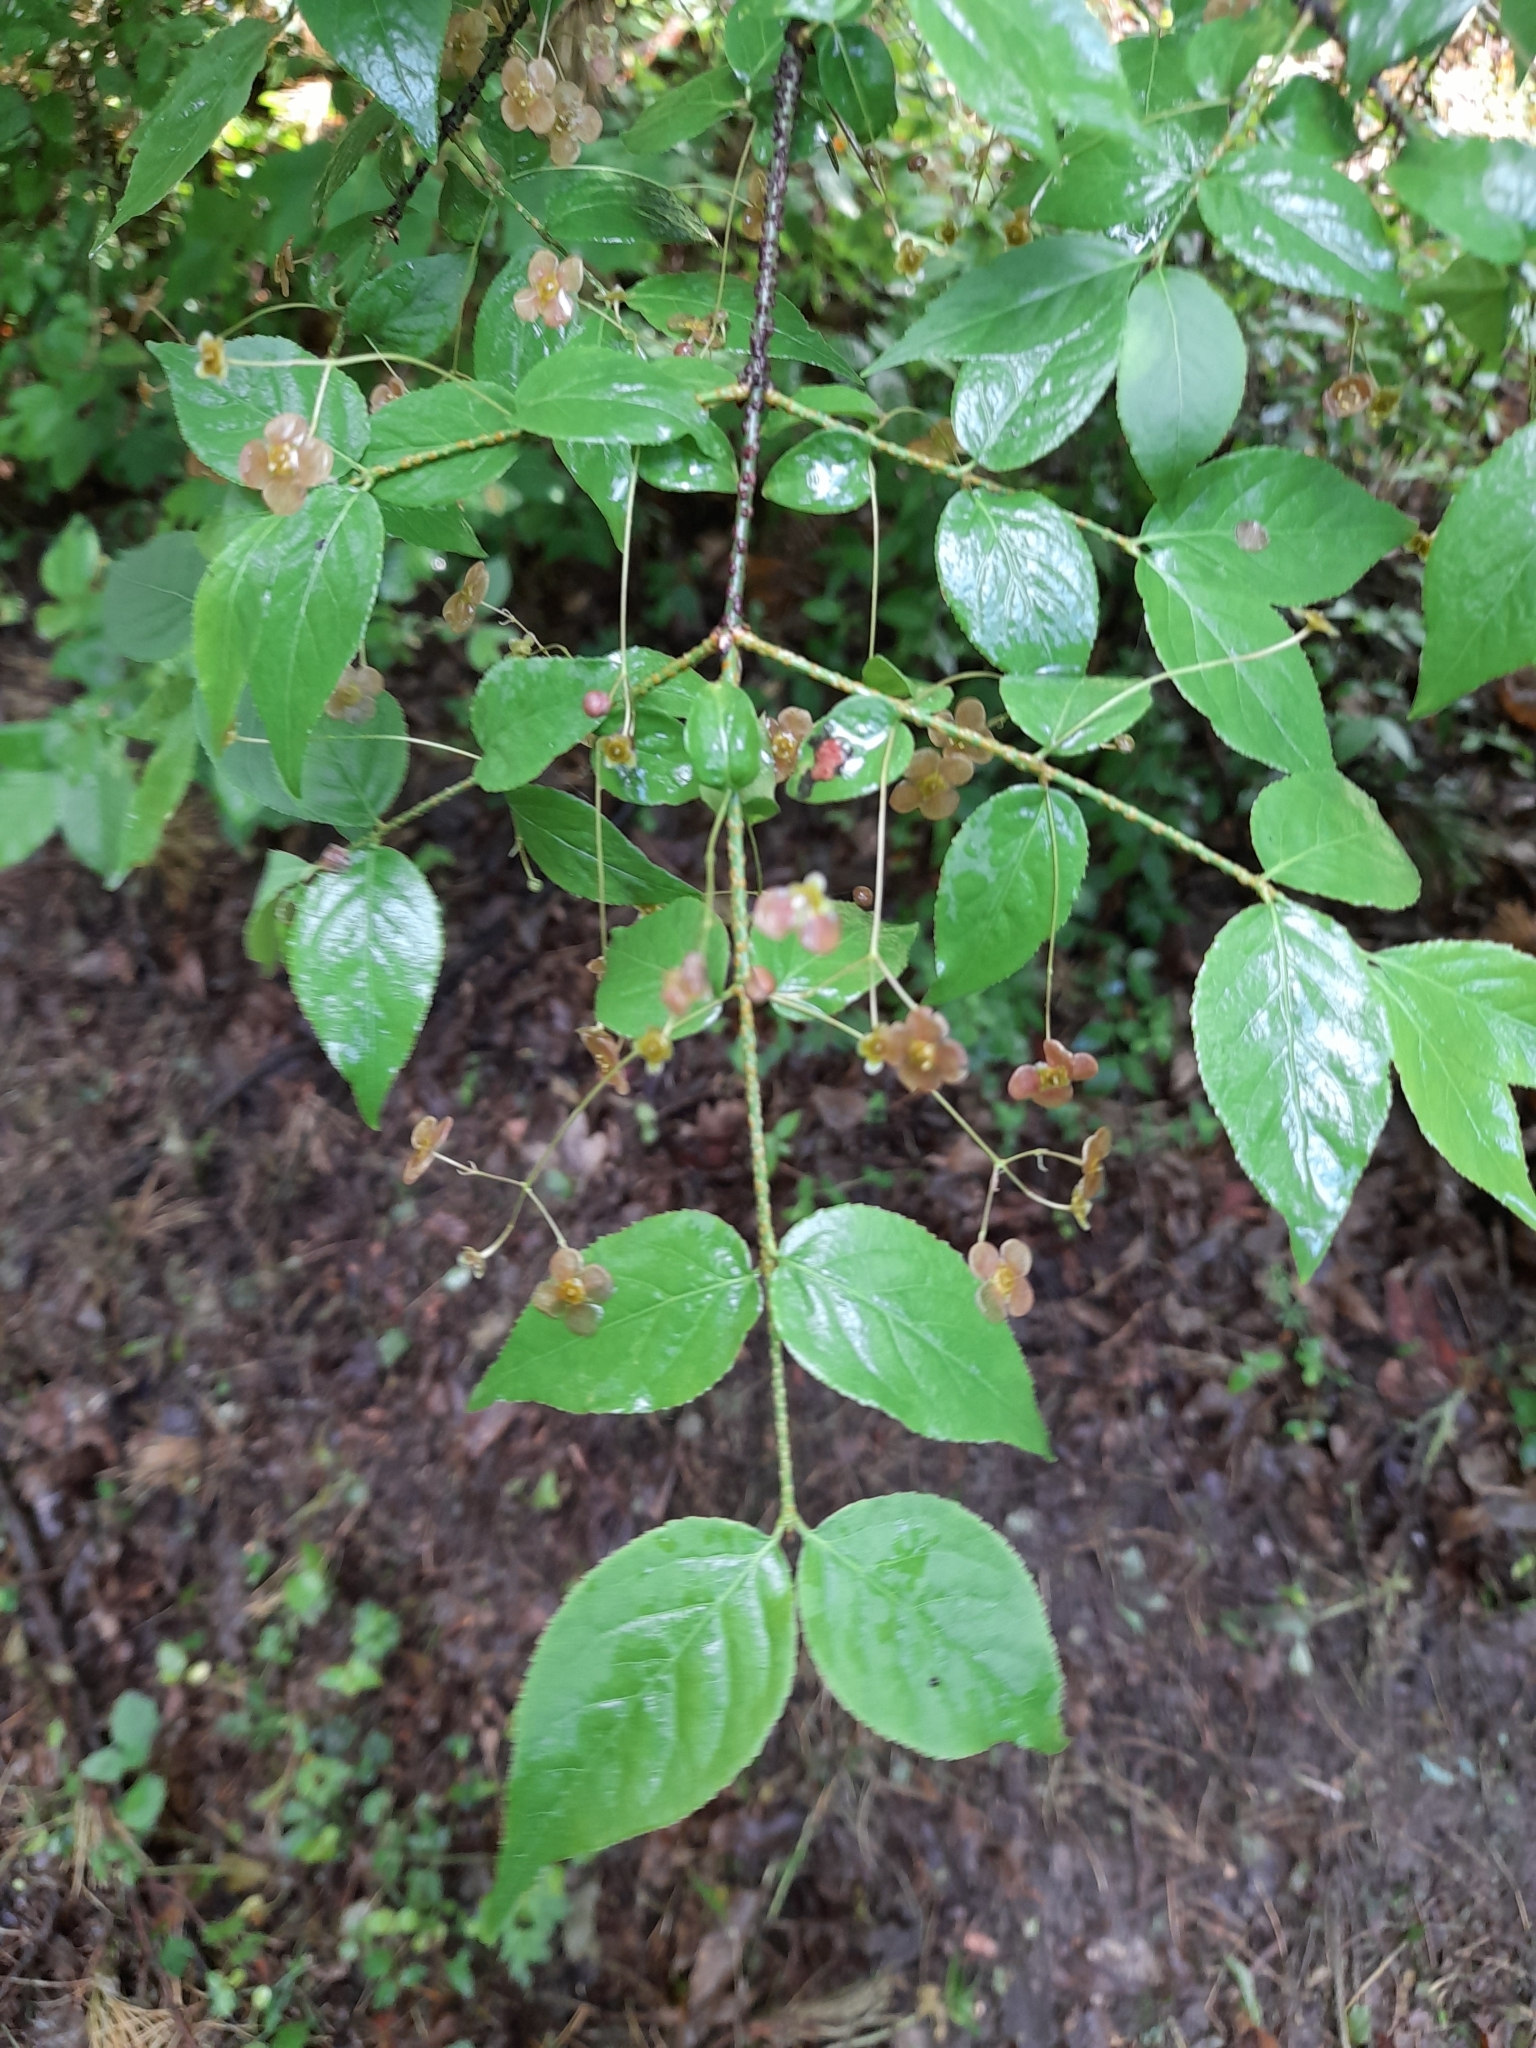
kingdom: Plantae
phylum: Tracheophyta
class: Magnoliopsida
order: Celastrales
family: Celastraceae
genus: Euonymus
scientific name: Euonymus verrucosus
